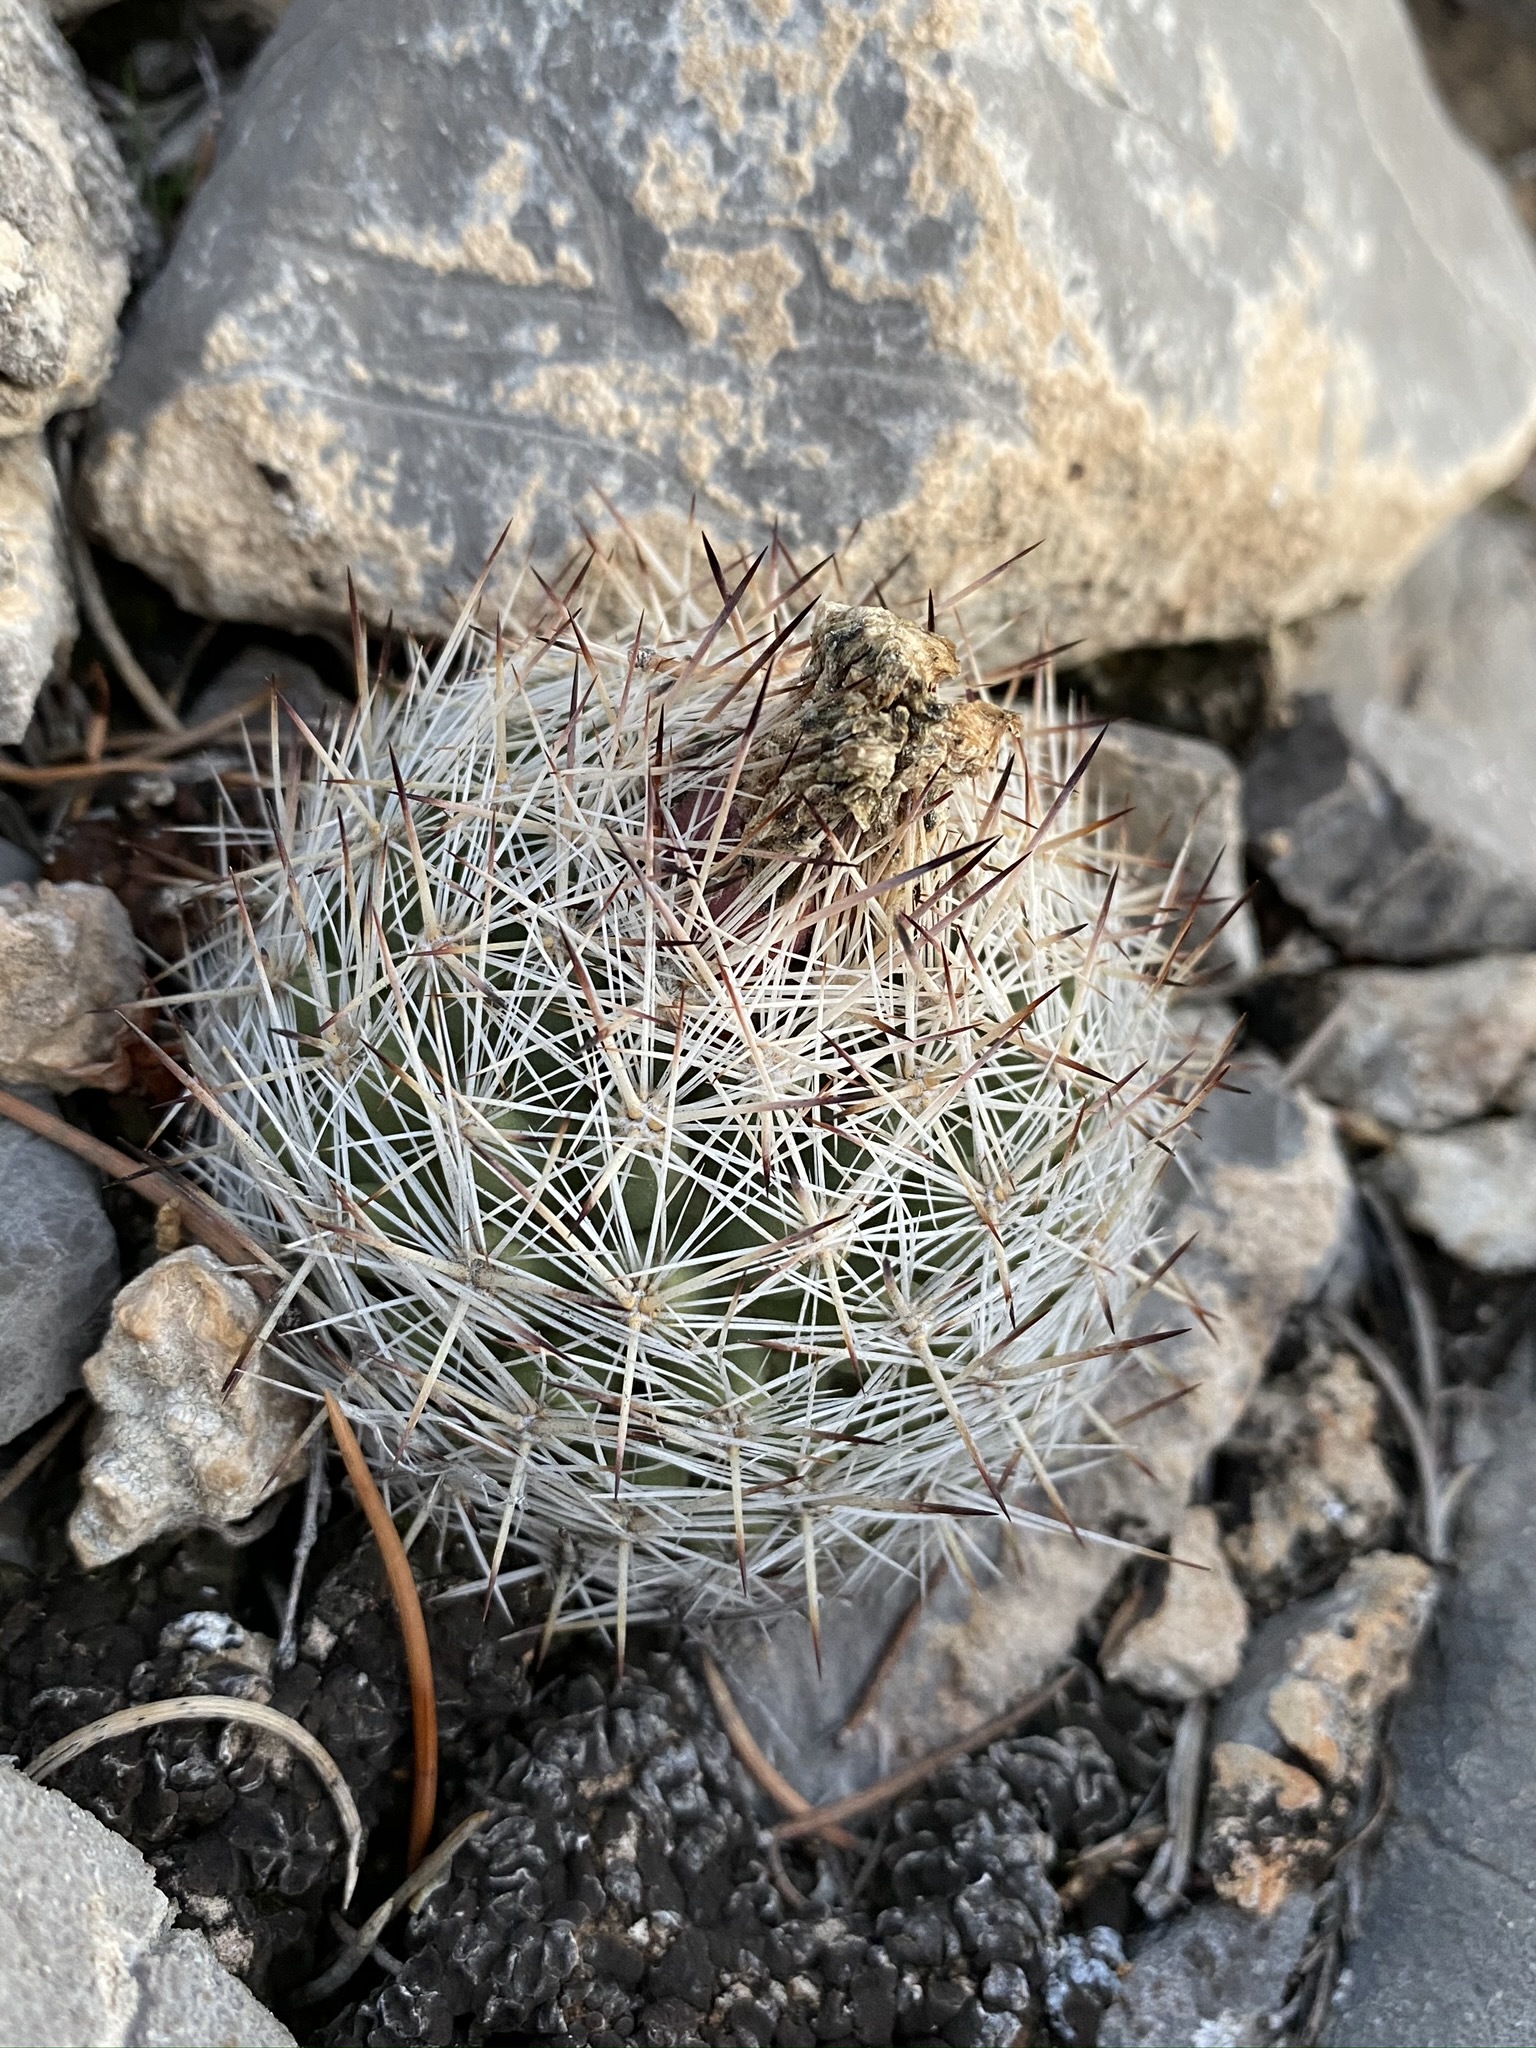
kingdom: Plantae
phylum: Tracheophyta
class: Magnoliopsida
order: Caryophyllales
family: Cactaceae
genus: Pelecyphora
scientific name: Pelecyphora dasyacantha
